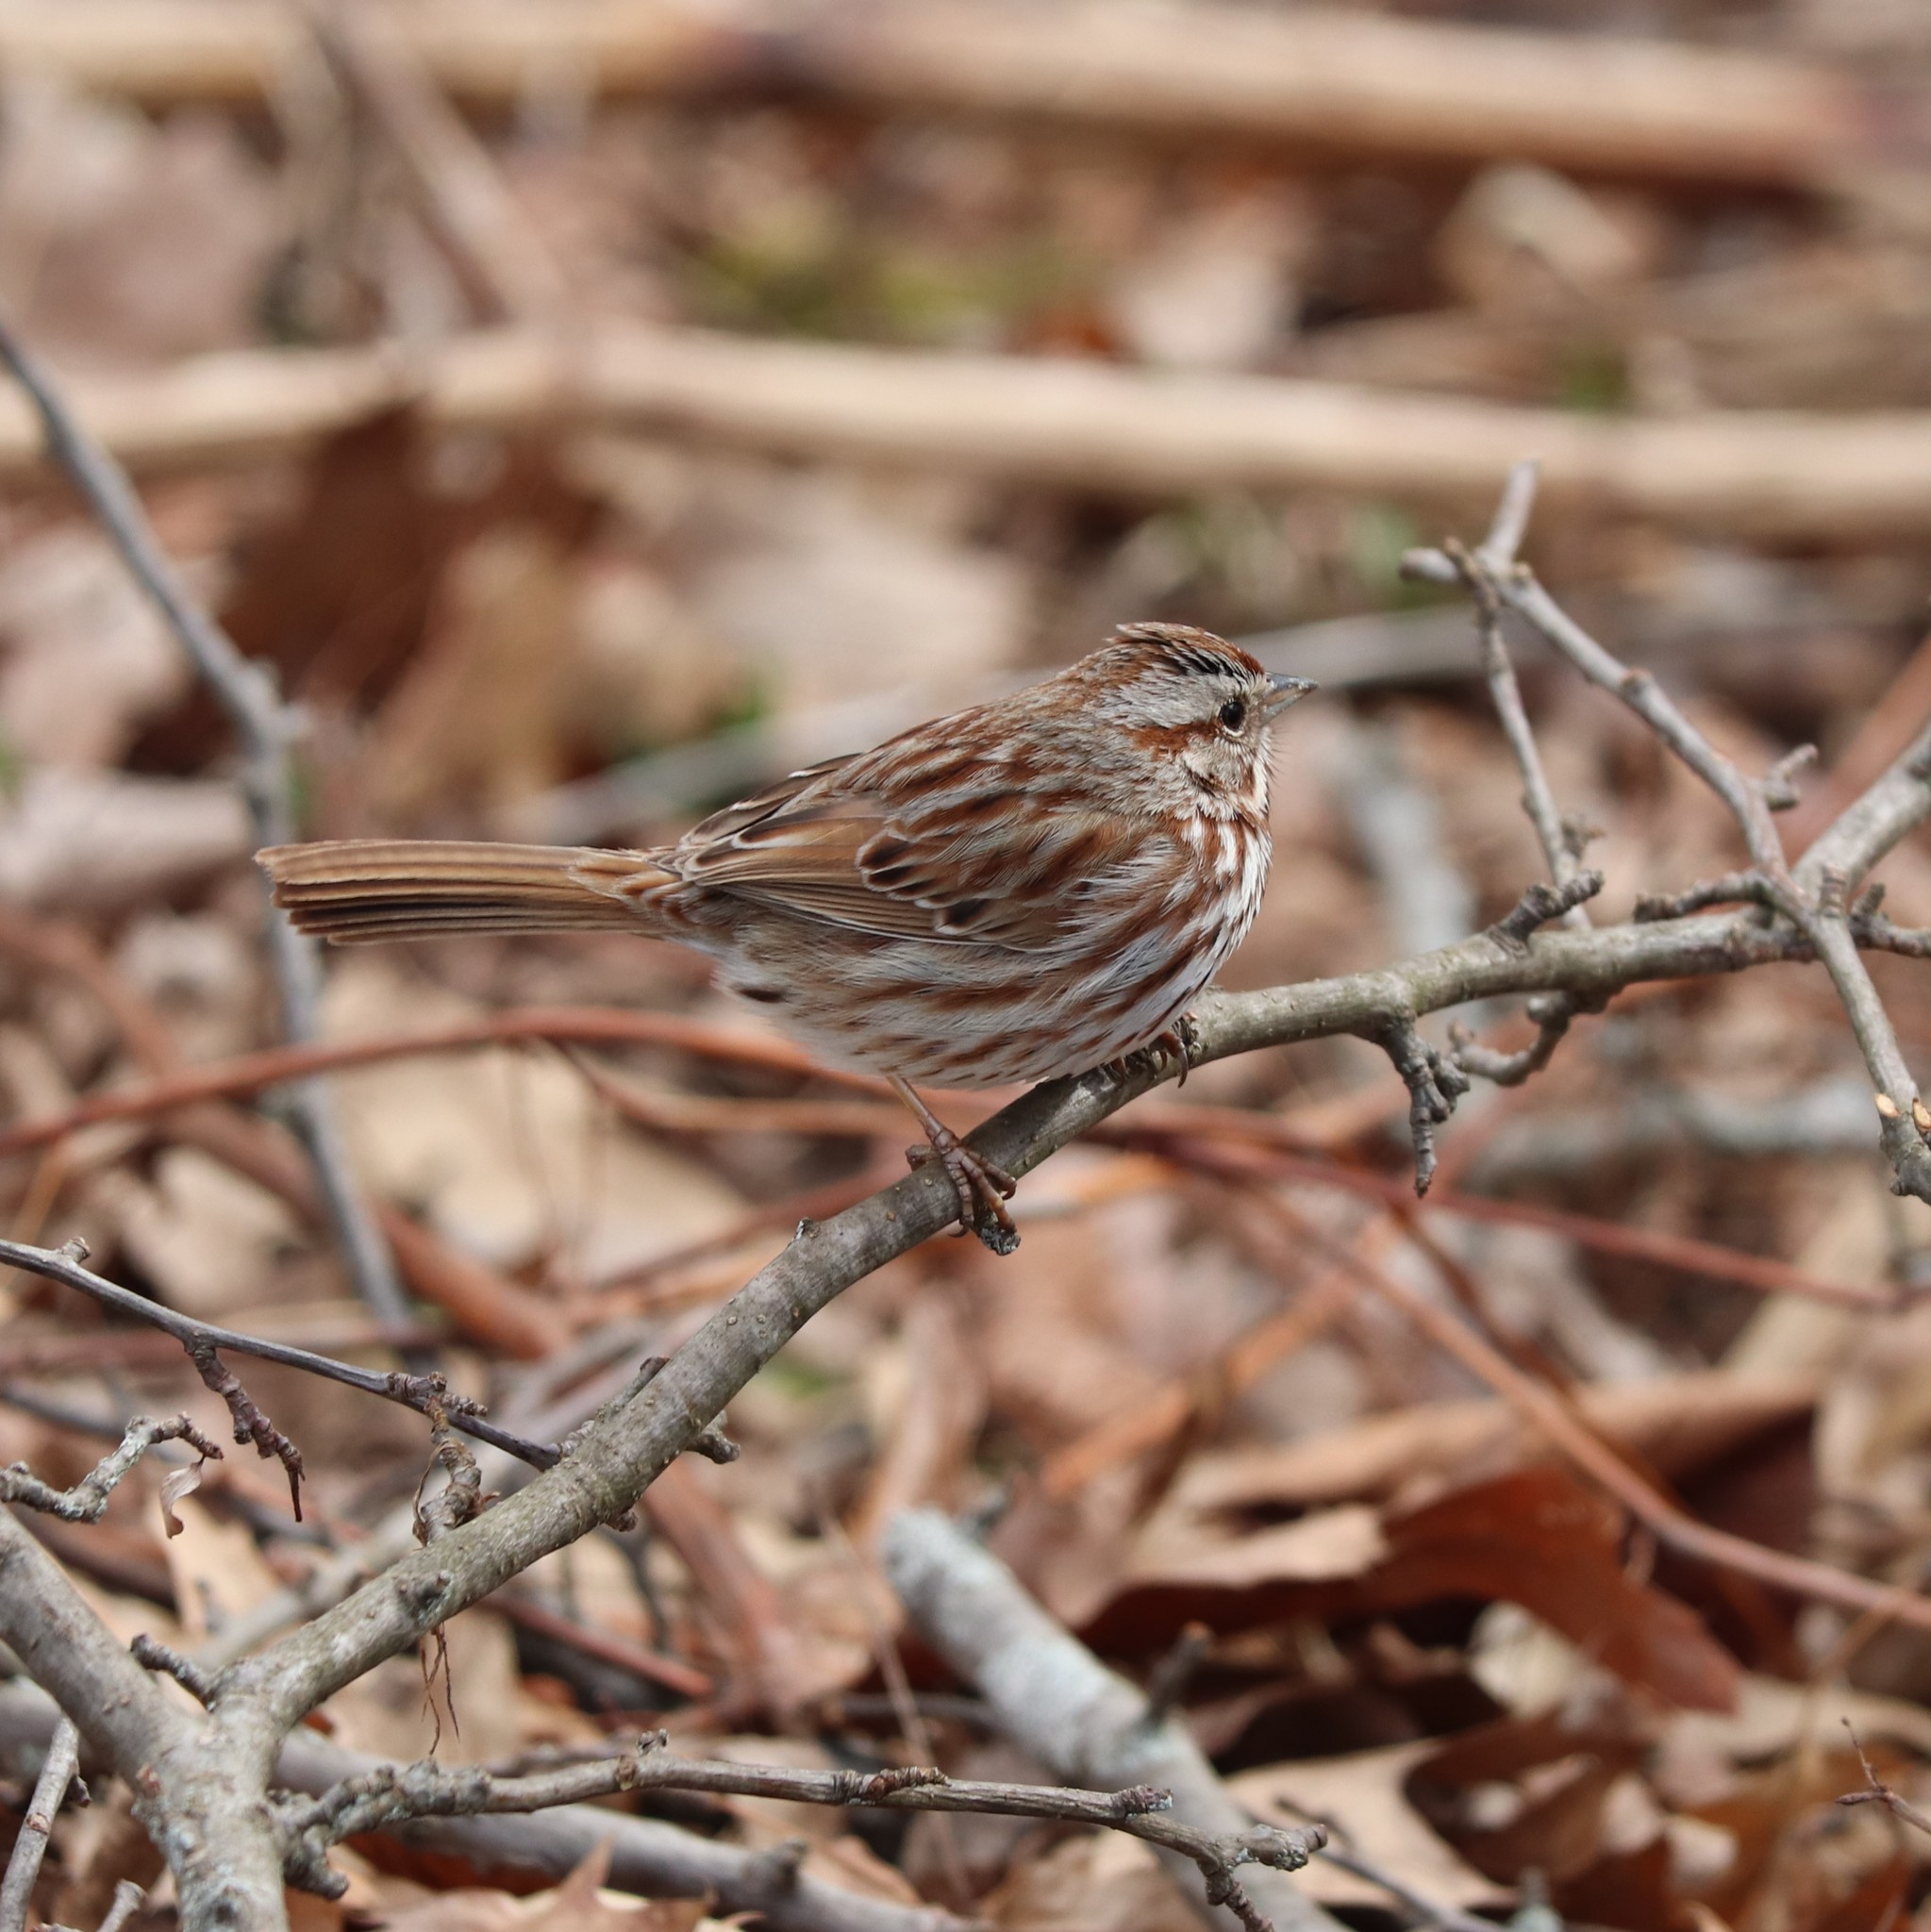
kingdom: Animalia
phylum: Chordata
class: Aves
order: Passeriformes
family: Passerellidae
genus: Melospiza
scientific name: Melospiza melodia
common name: Song sparrow
